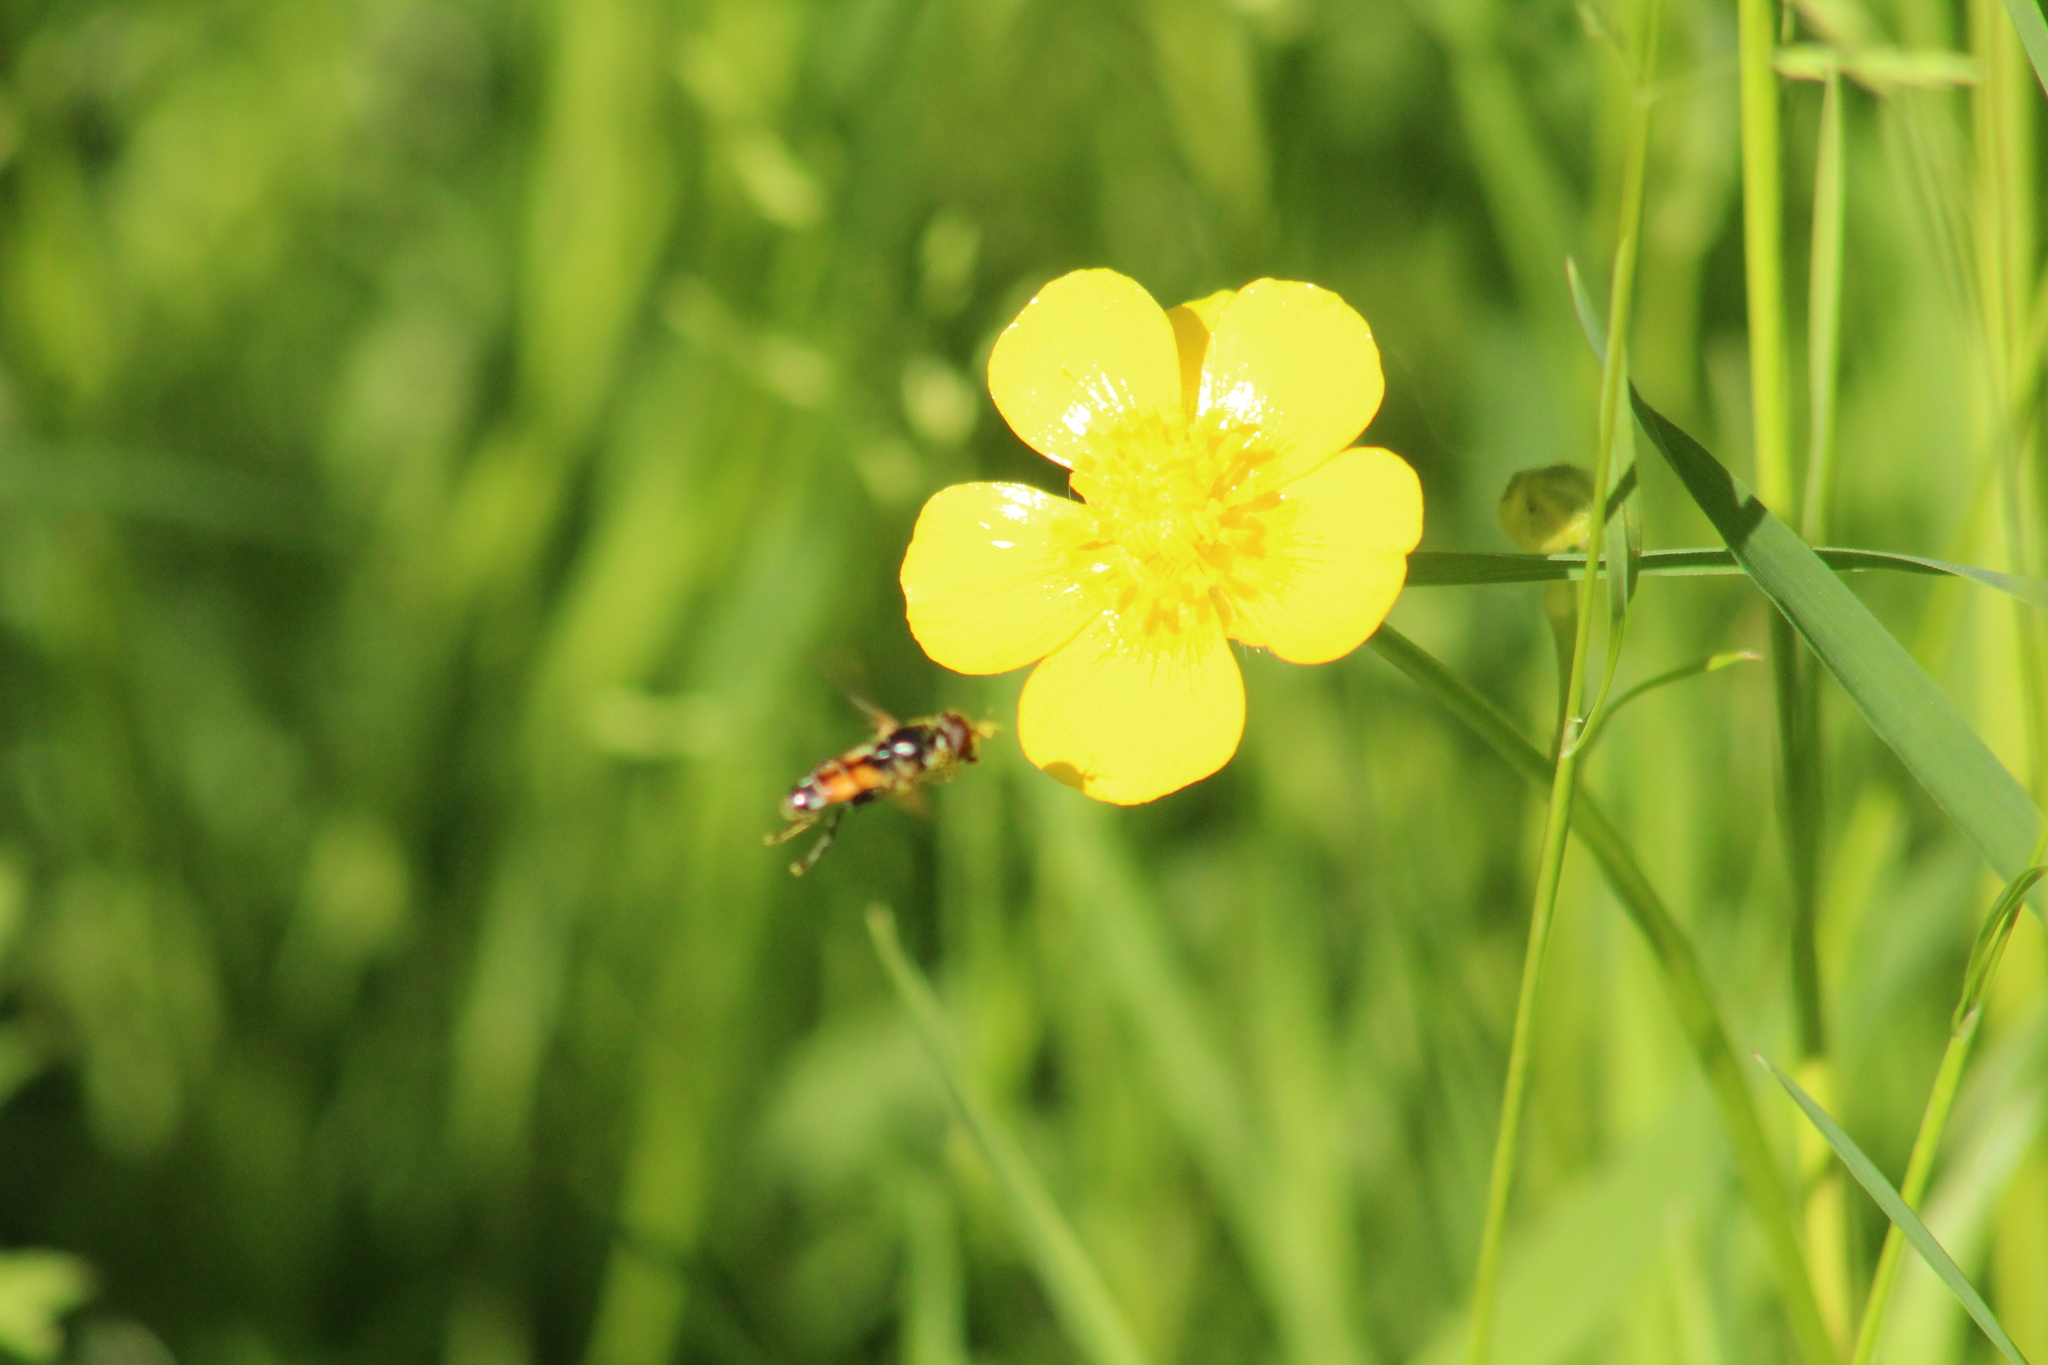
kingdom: Animalia
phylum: Arthropoda
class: Insecta
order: Diptera
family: Syrphidae
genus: Tropidia
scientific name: Tropidia scita
